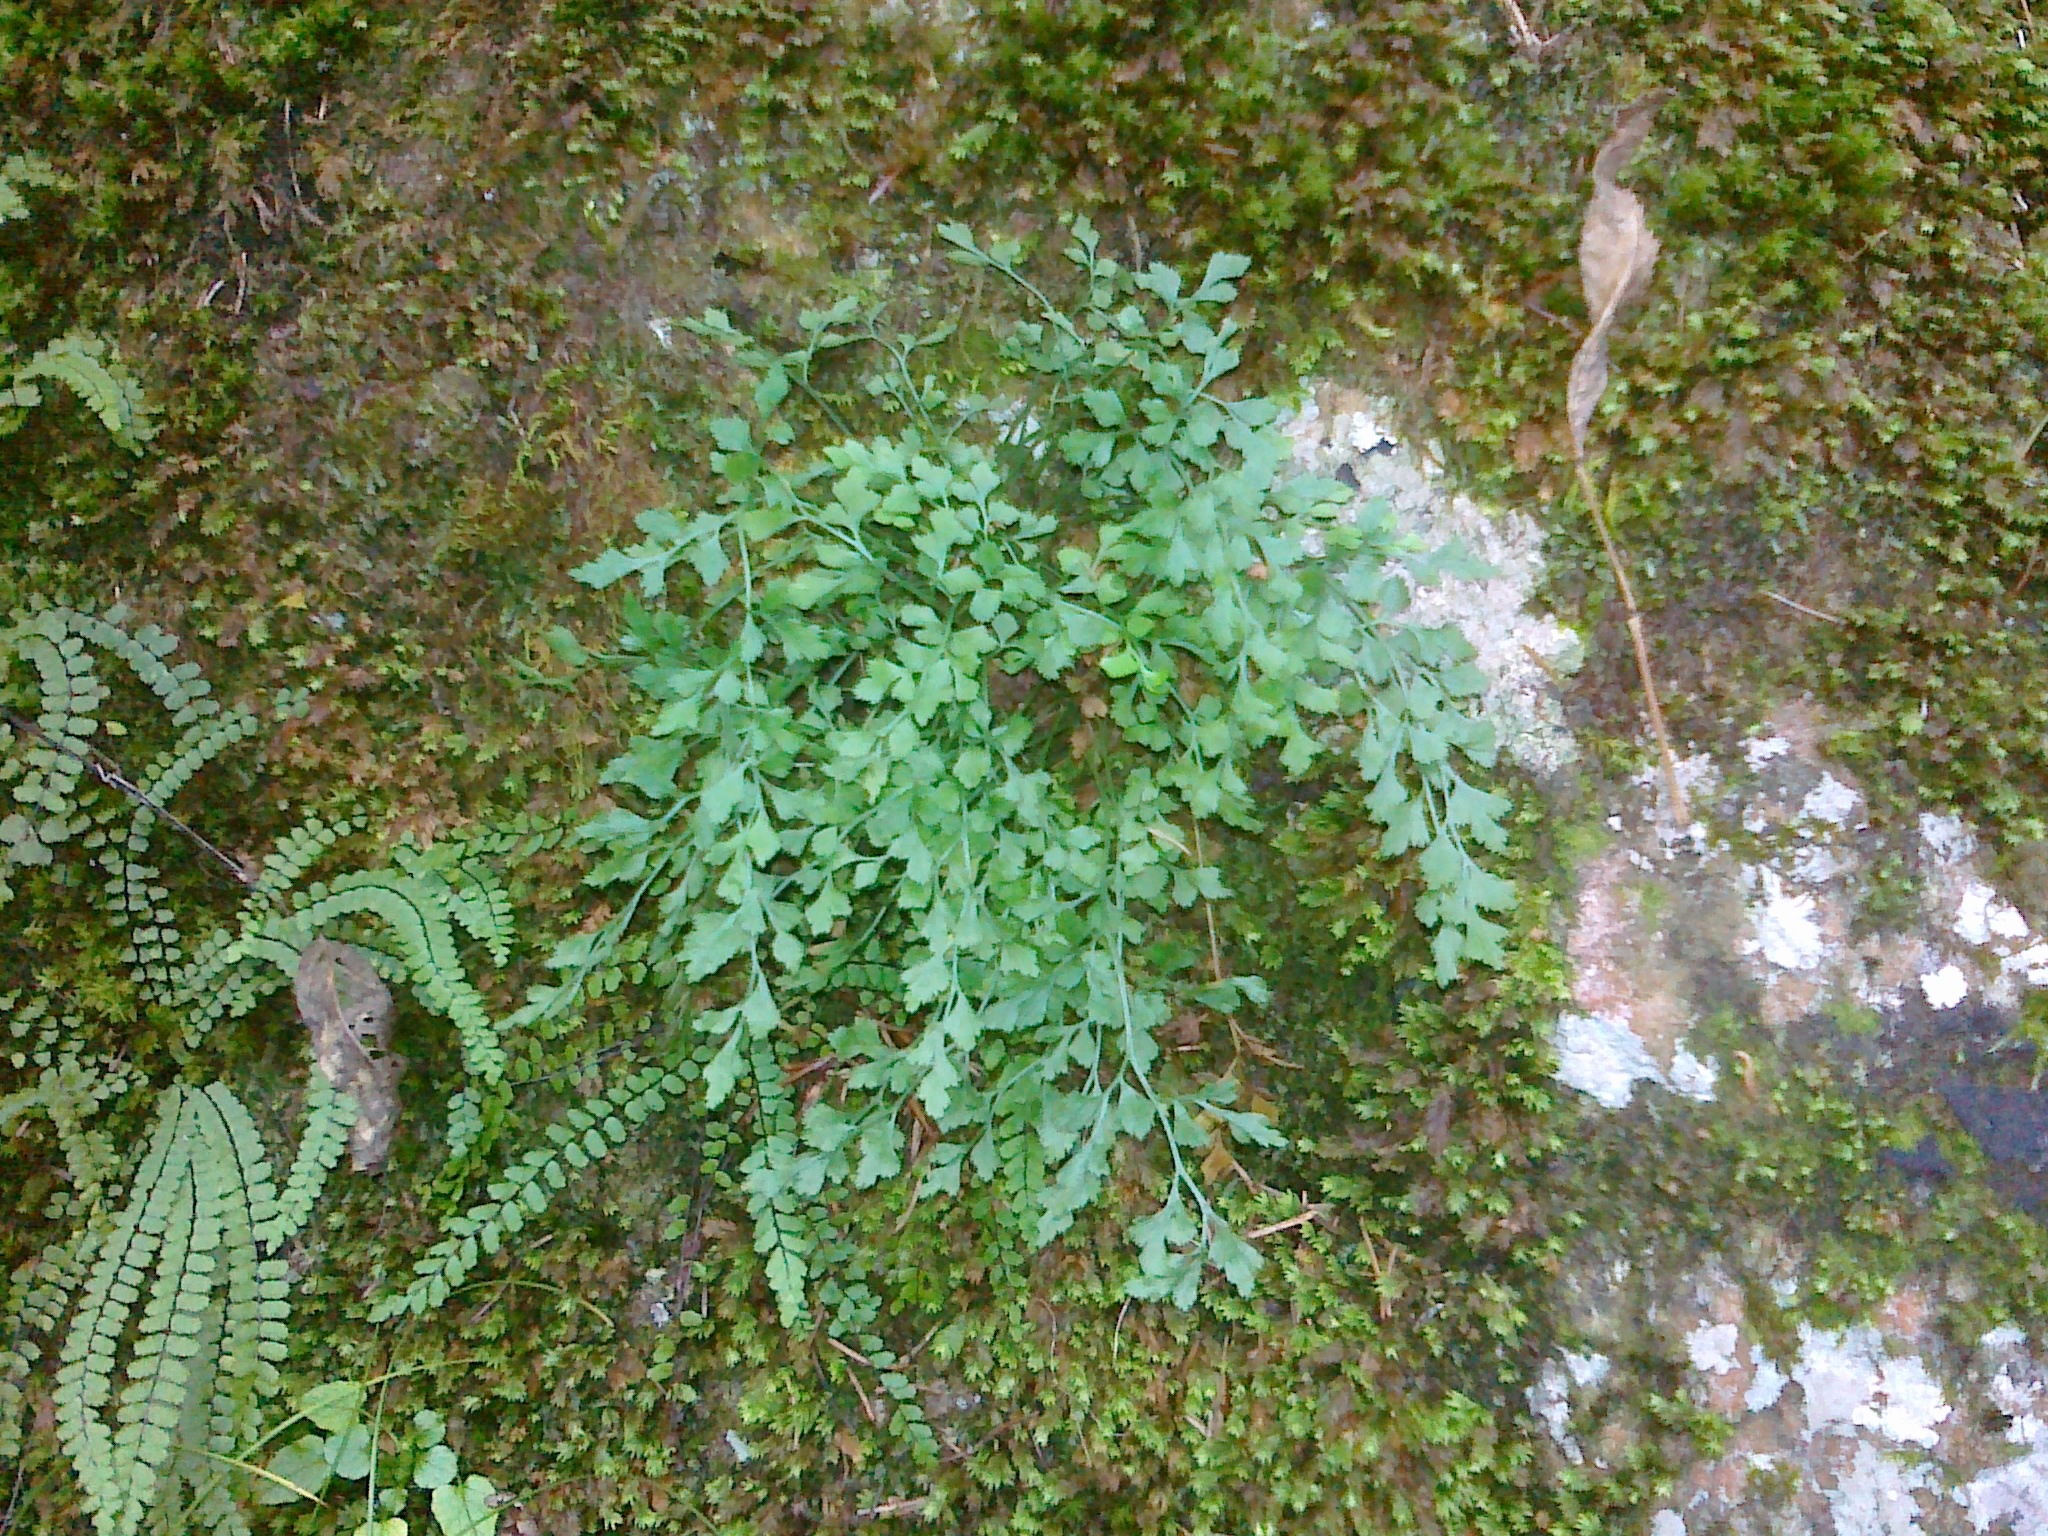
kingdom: Plantae
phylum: Tracheophyta
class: Polypodiopsida
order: Polypodiales
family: Aspleniaceae
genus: Asplenium
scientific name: Asplenium ruta-muraria
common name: Wall-rue
